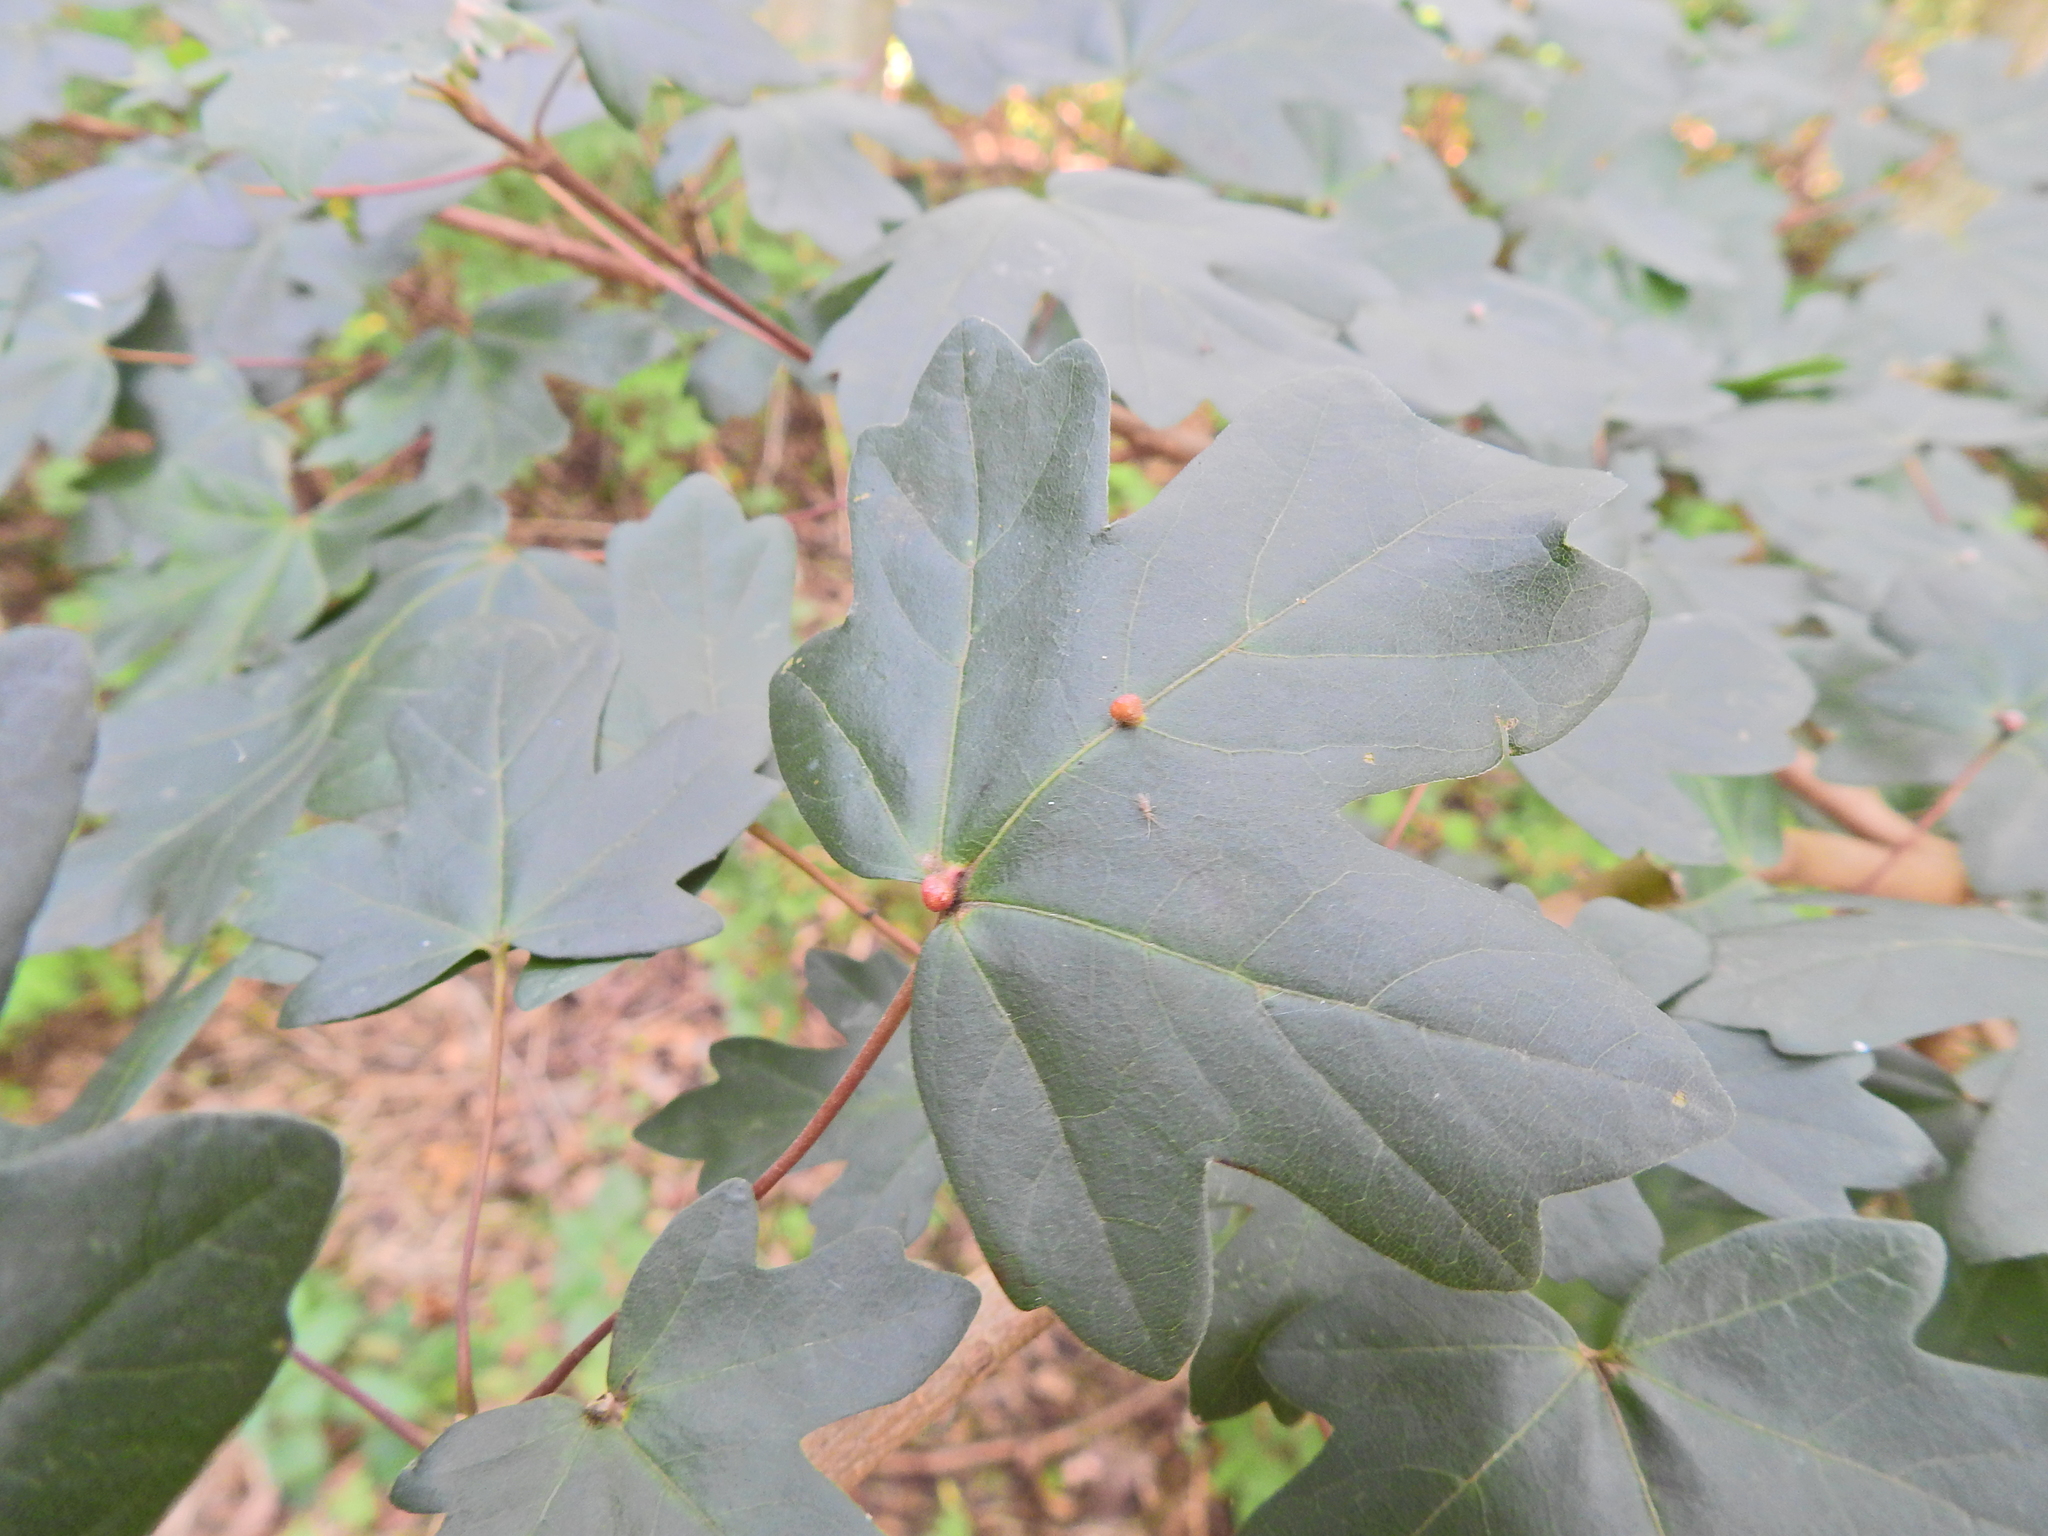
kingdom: Animalia
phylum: Arthropoda
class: Arachnida
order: Trombidiformes
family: Eriophyidae
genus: Aceria
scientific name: Aceria macrochelus
